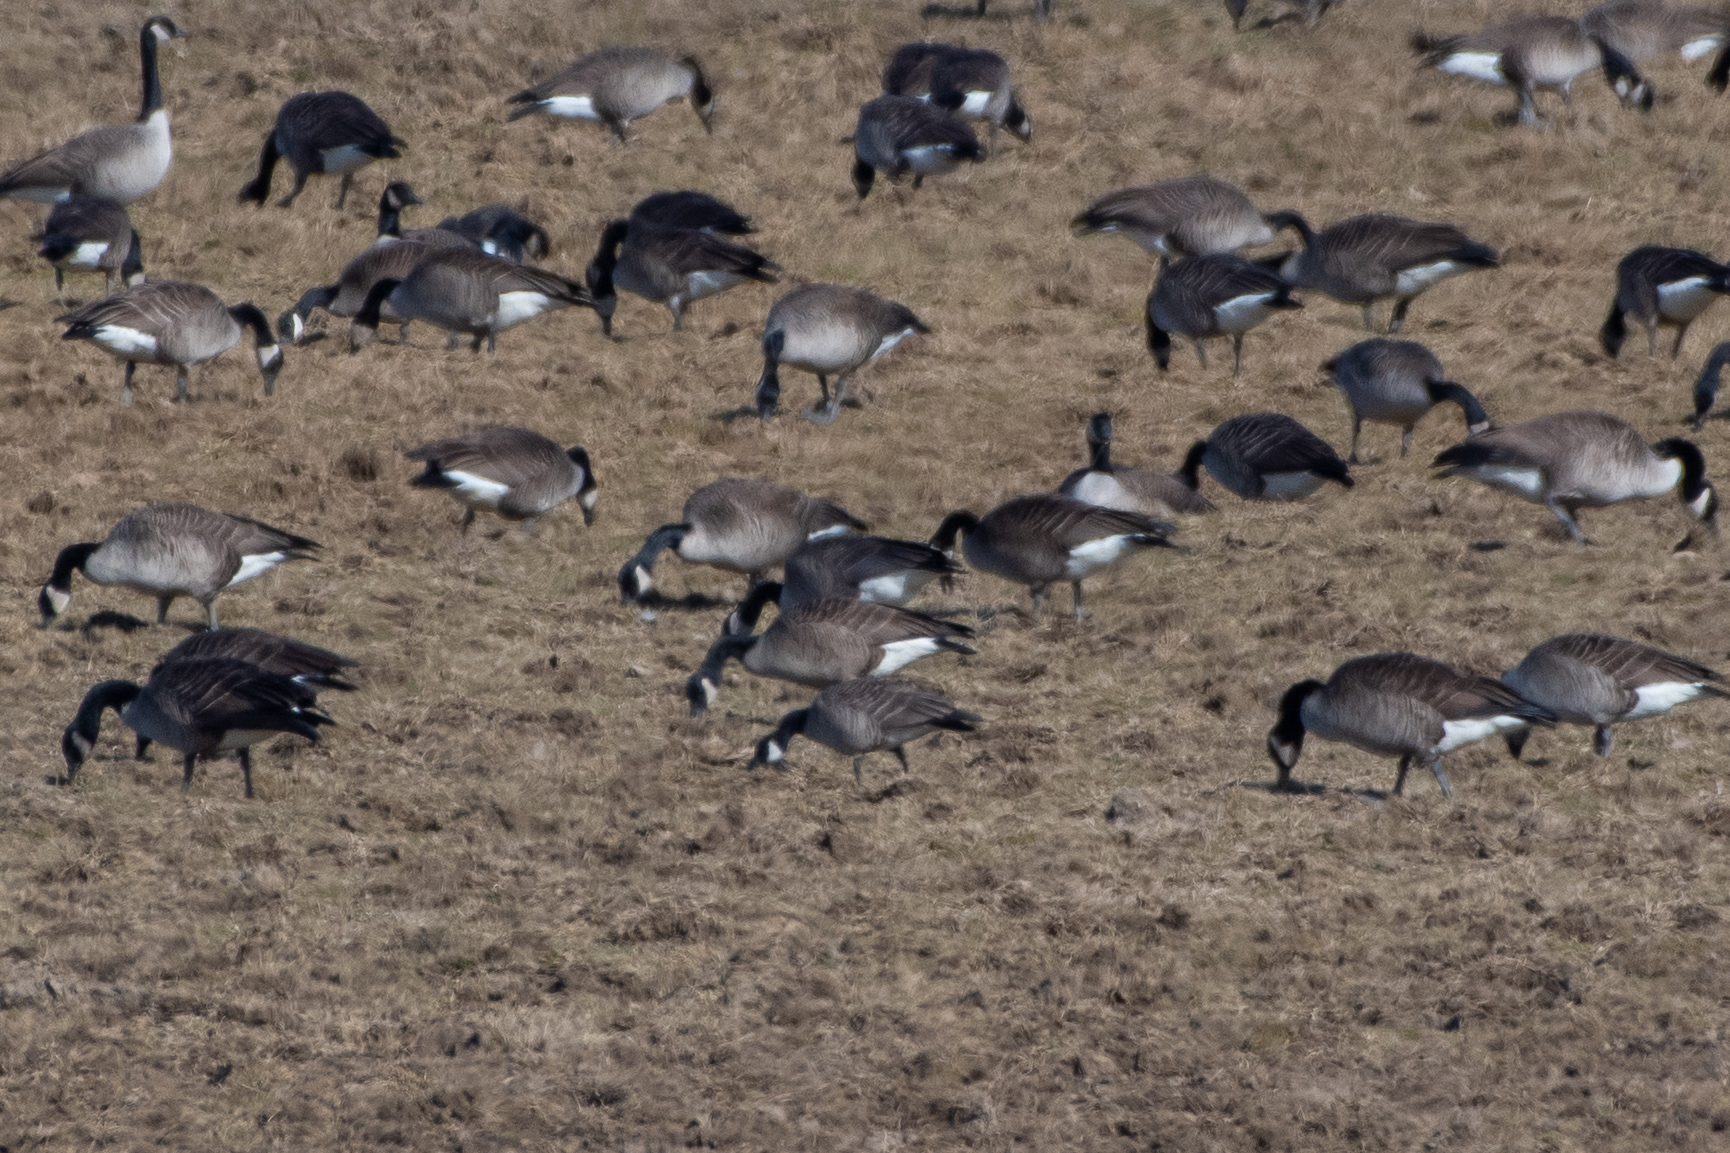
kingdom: Animalia
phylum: Chordata
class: Aves
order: Anseriformes
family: Anatidae
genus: Branta
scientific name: Branta hutchinsii
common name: Cackling goose
